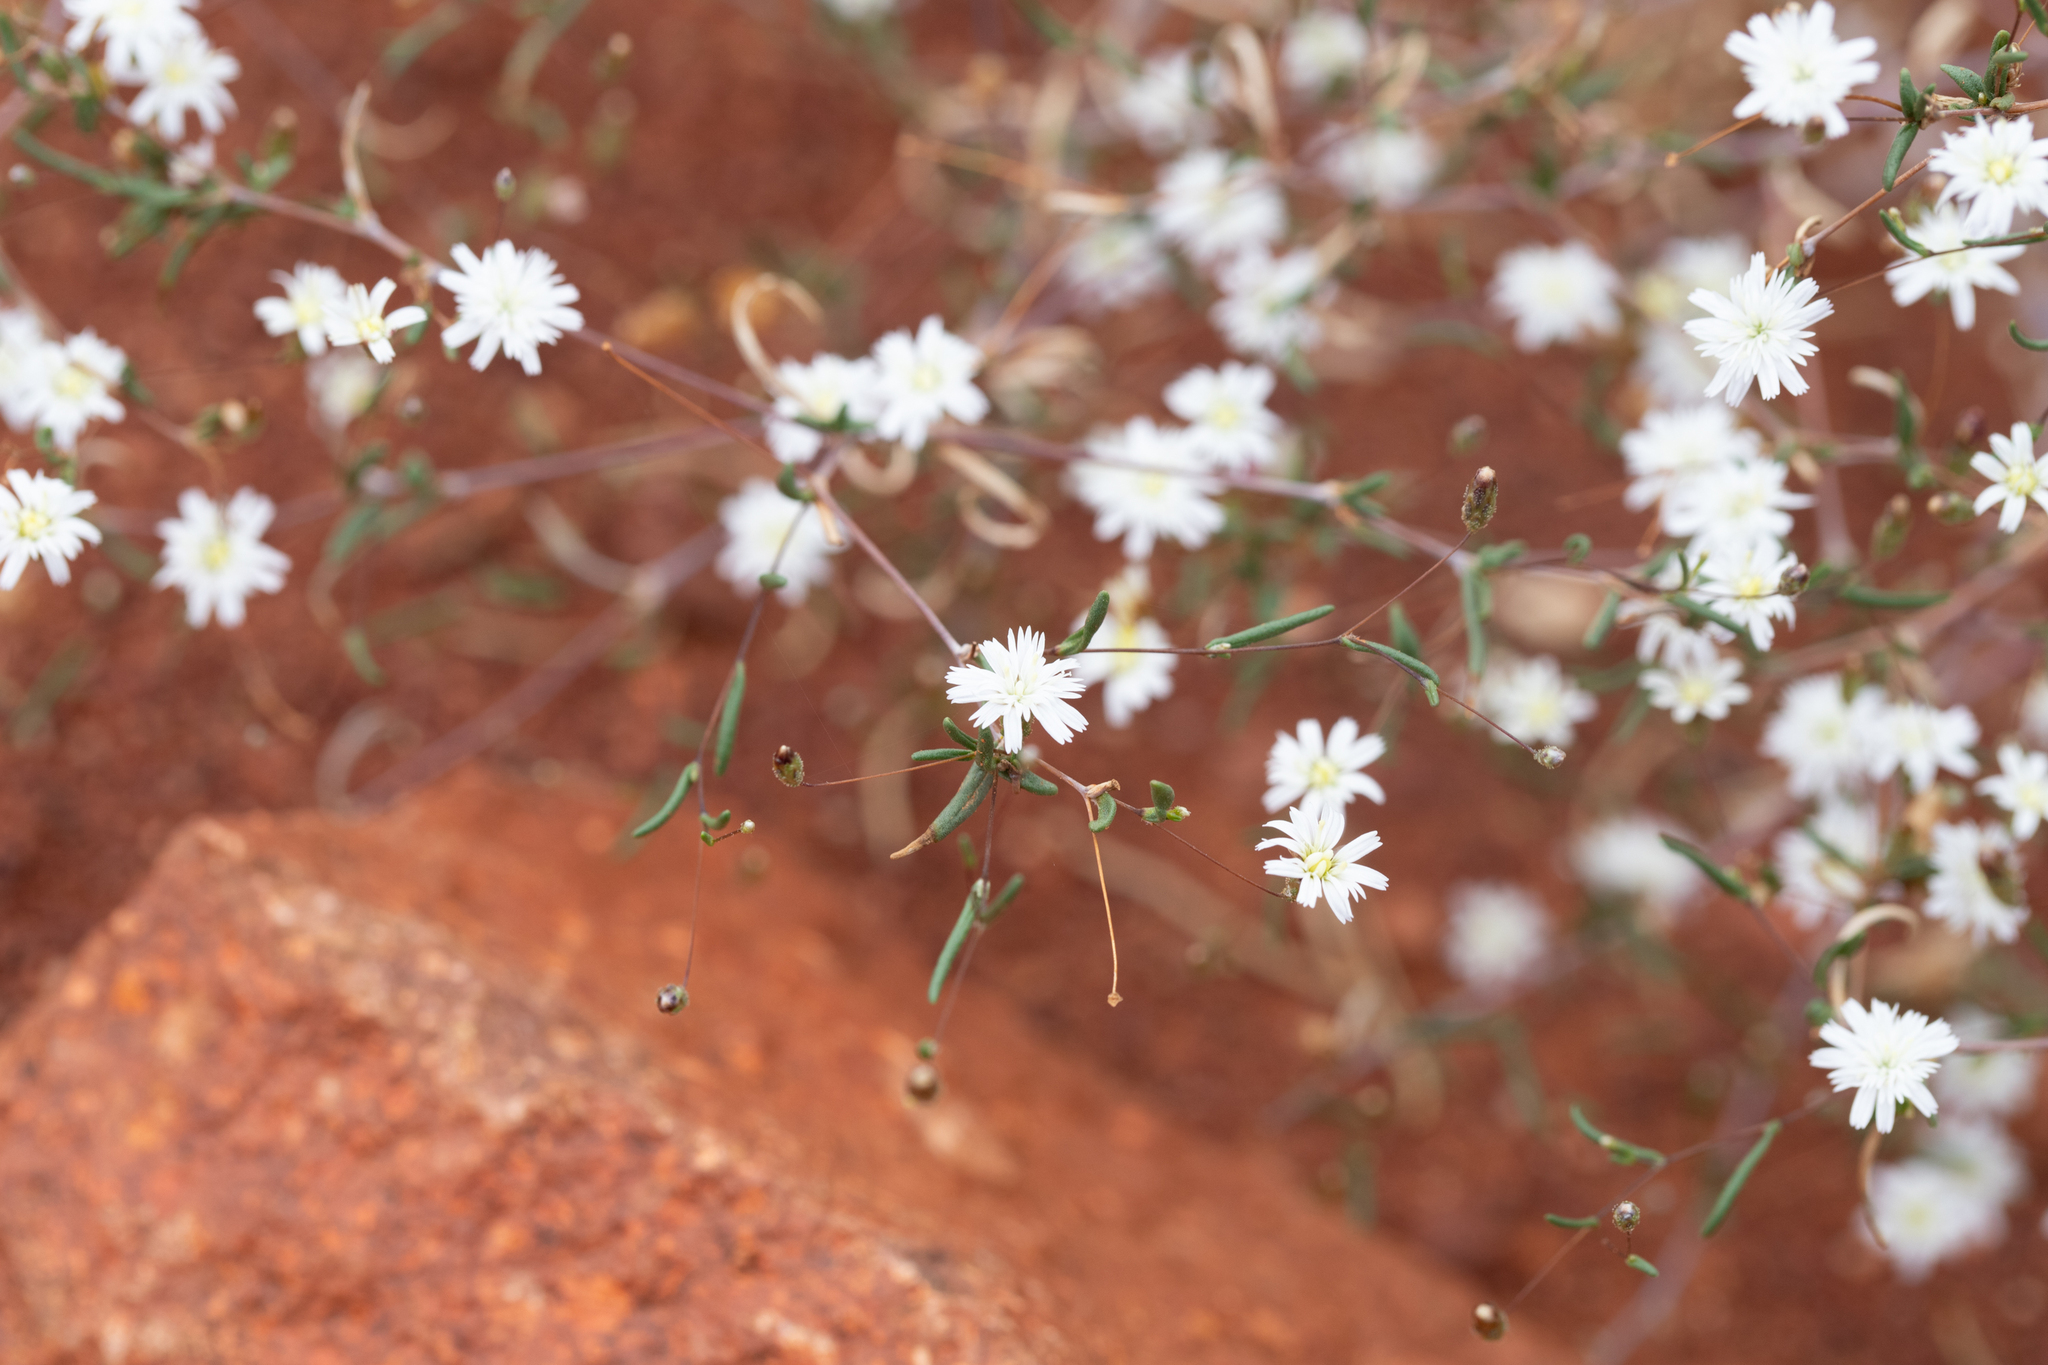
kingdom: Plantae
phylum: Tracheophyta
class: Magnoliopsida
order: Asterales
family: Asteraceae
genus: Siemssenia
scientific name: Siemssenia capillaris
